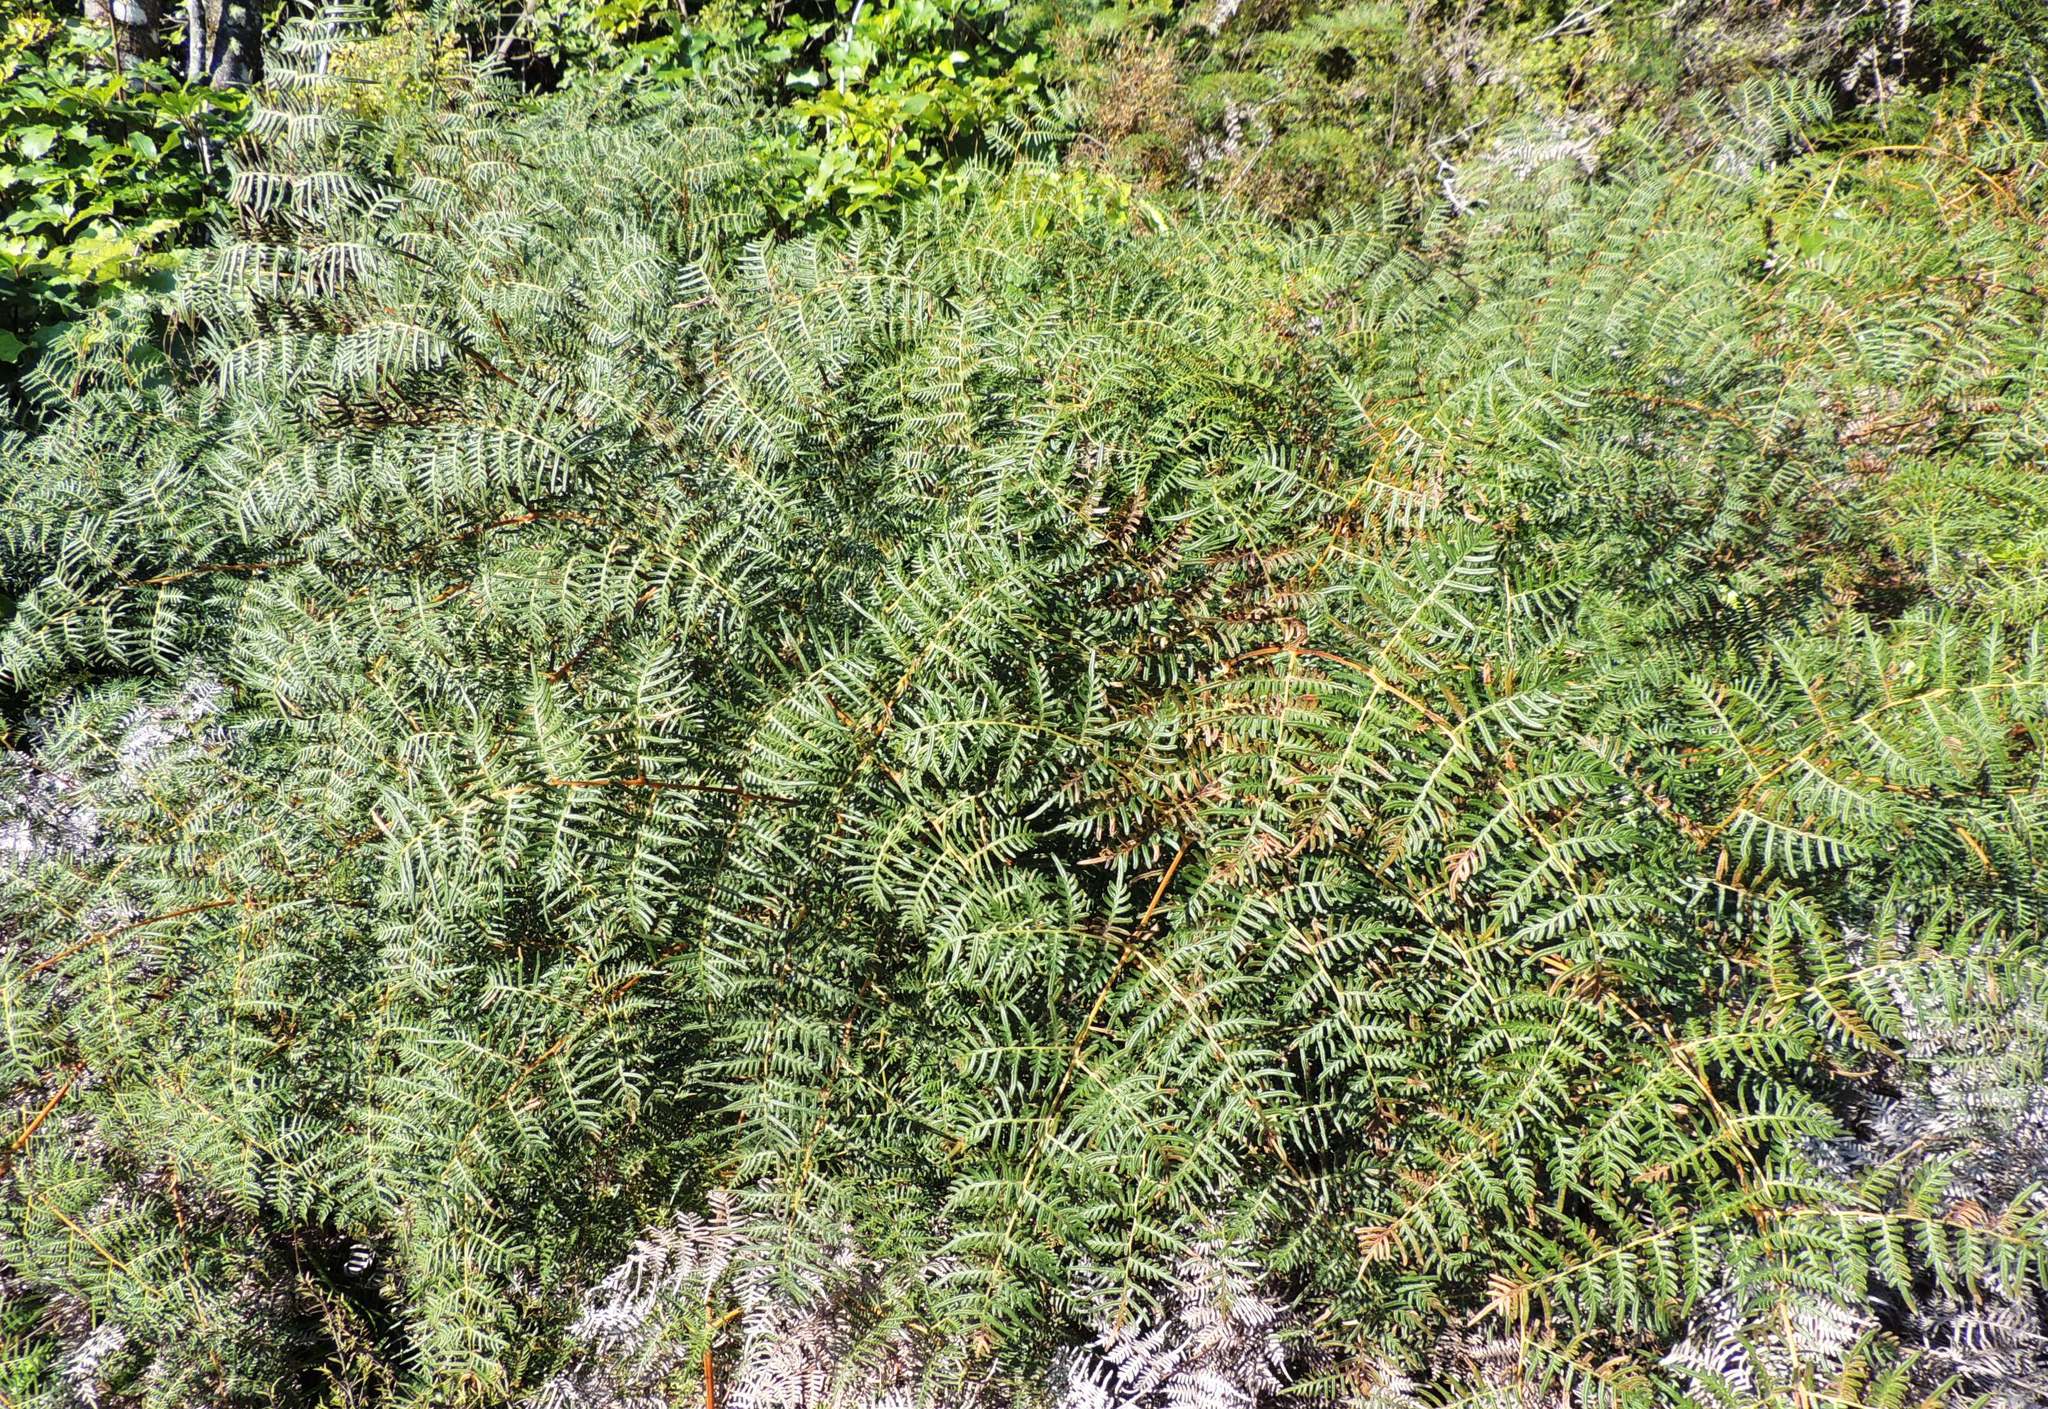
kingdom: Plantae
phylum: Tracheophyta
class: Polypodiopsida
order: Polypodiales
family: Dennstaedtiaceae
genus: Pteridium
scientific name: Pteridium esculentum
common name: Bracken fern
